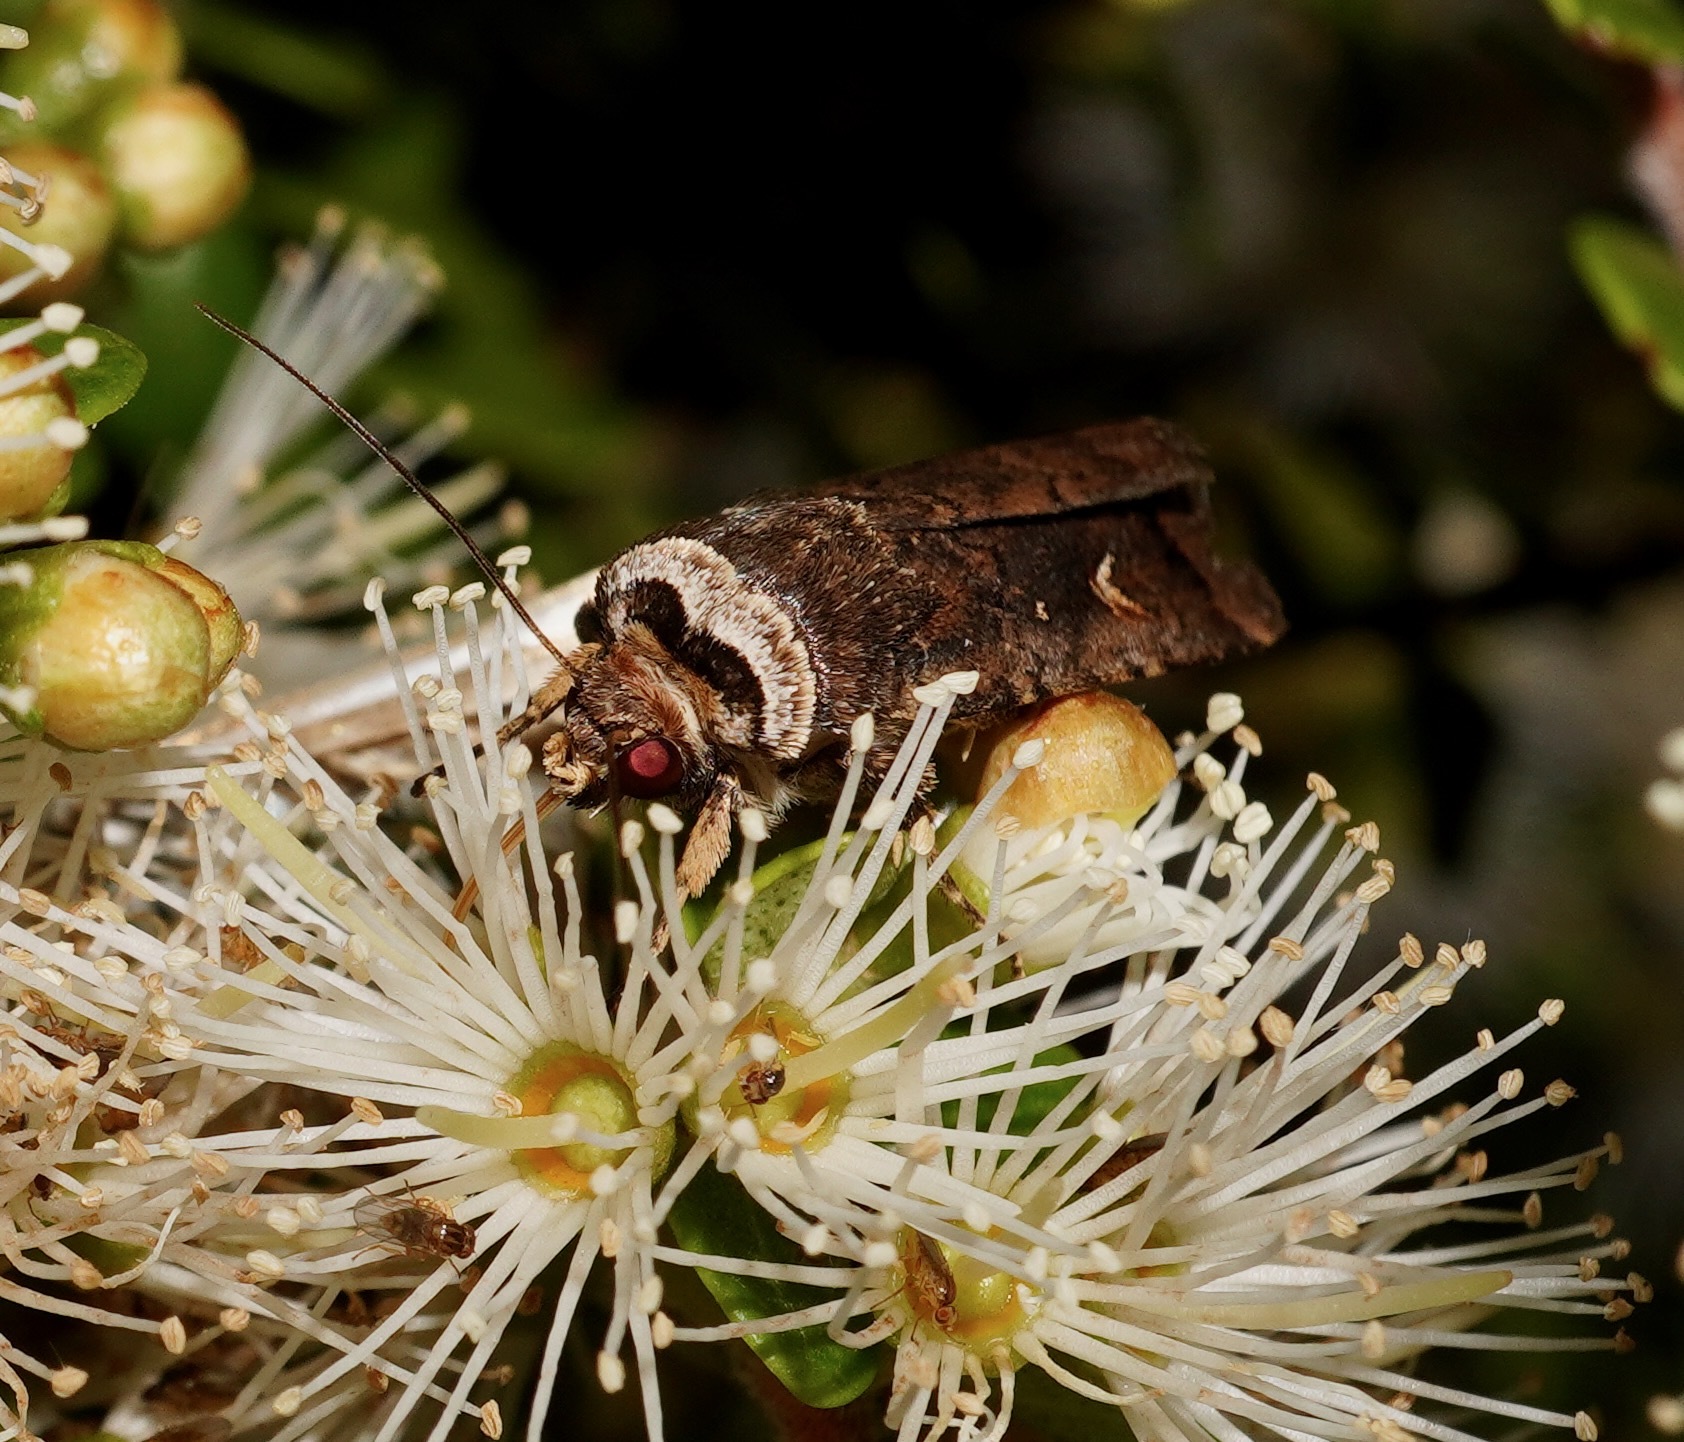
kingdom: Animalia
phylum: Arthropoda
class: Insecta
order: Lepidoptera
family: Noctuidae
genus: Proteuxoa
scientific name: Proteuxoa tetronycha
